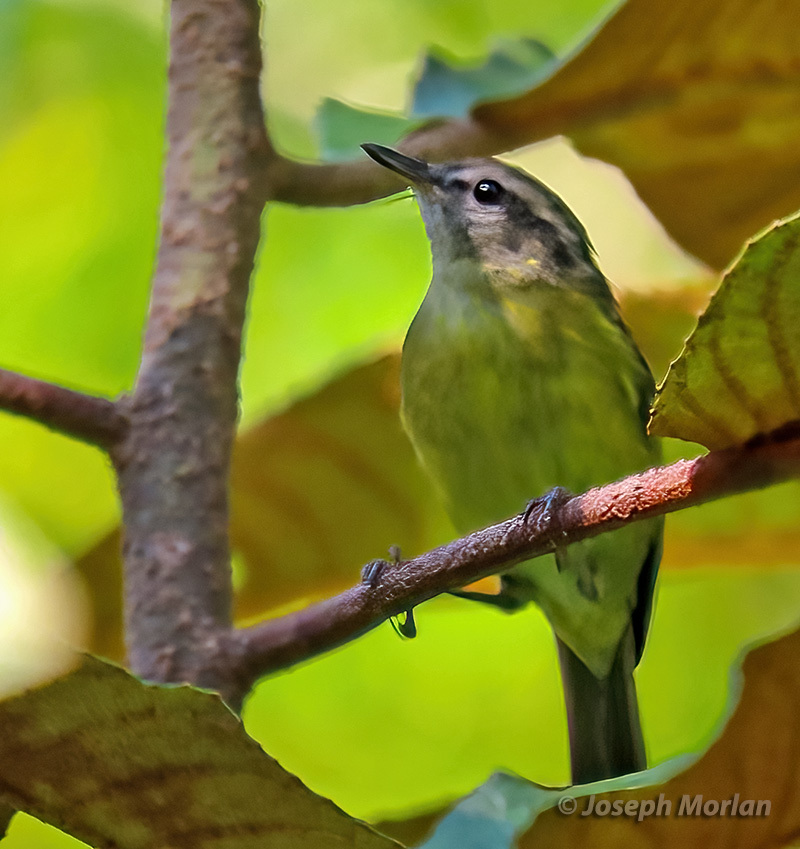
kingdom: Animalia
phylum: Chordata
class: Aves
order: Passeriformes
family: Phylloscopidae
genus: Phylloscopus
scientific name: Phylloscopus maforensis
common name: Island leaf warbler
